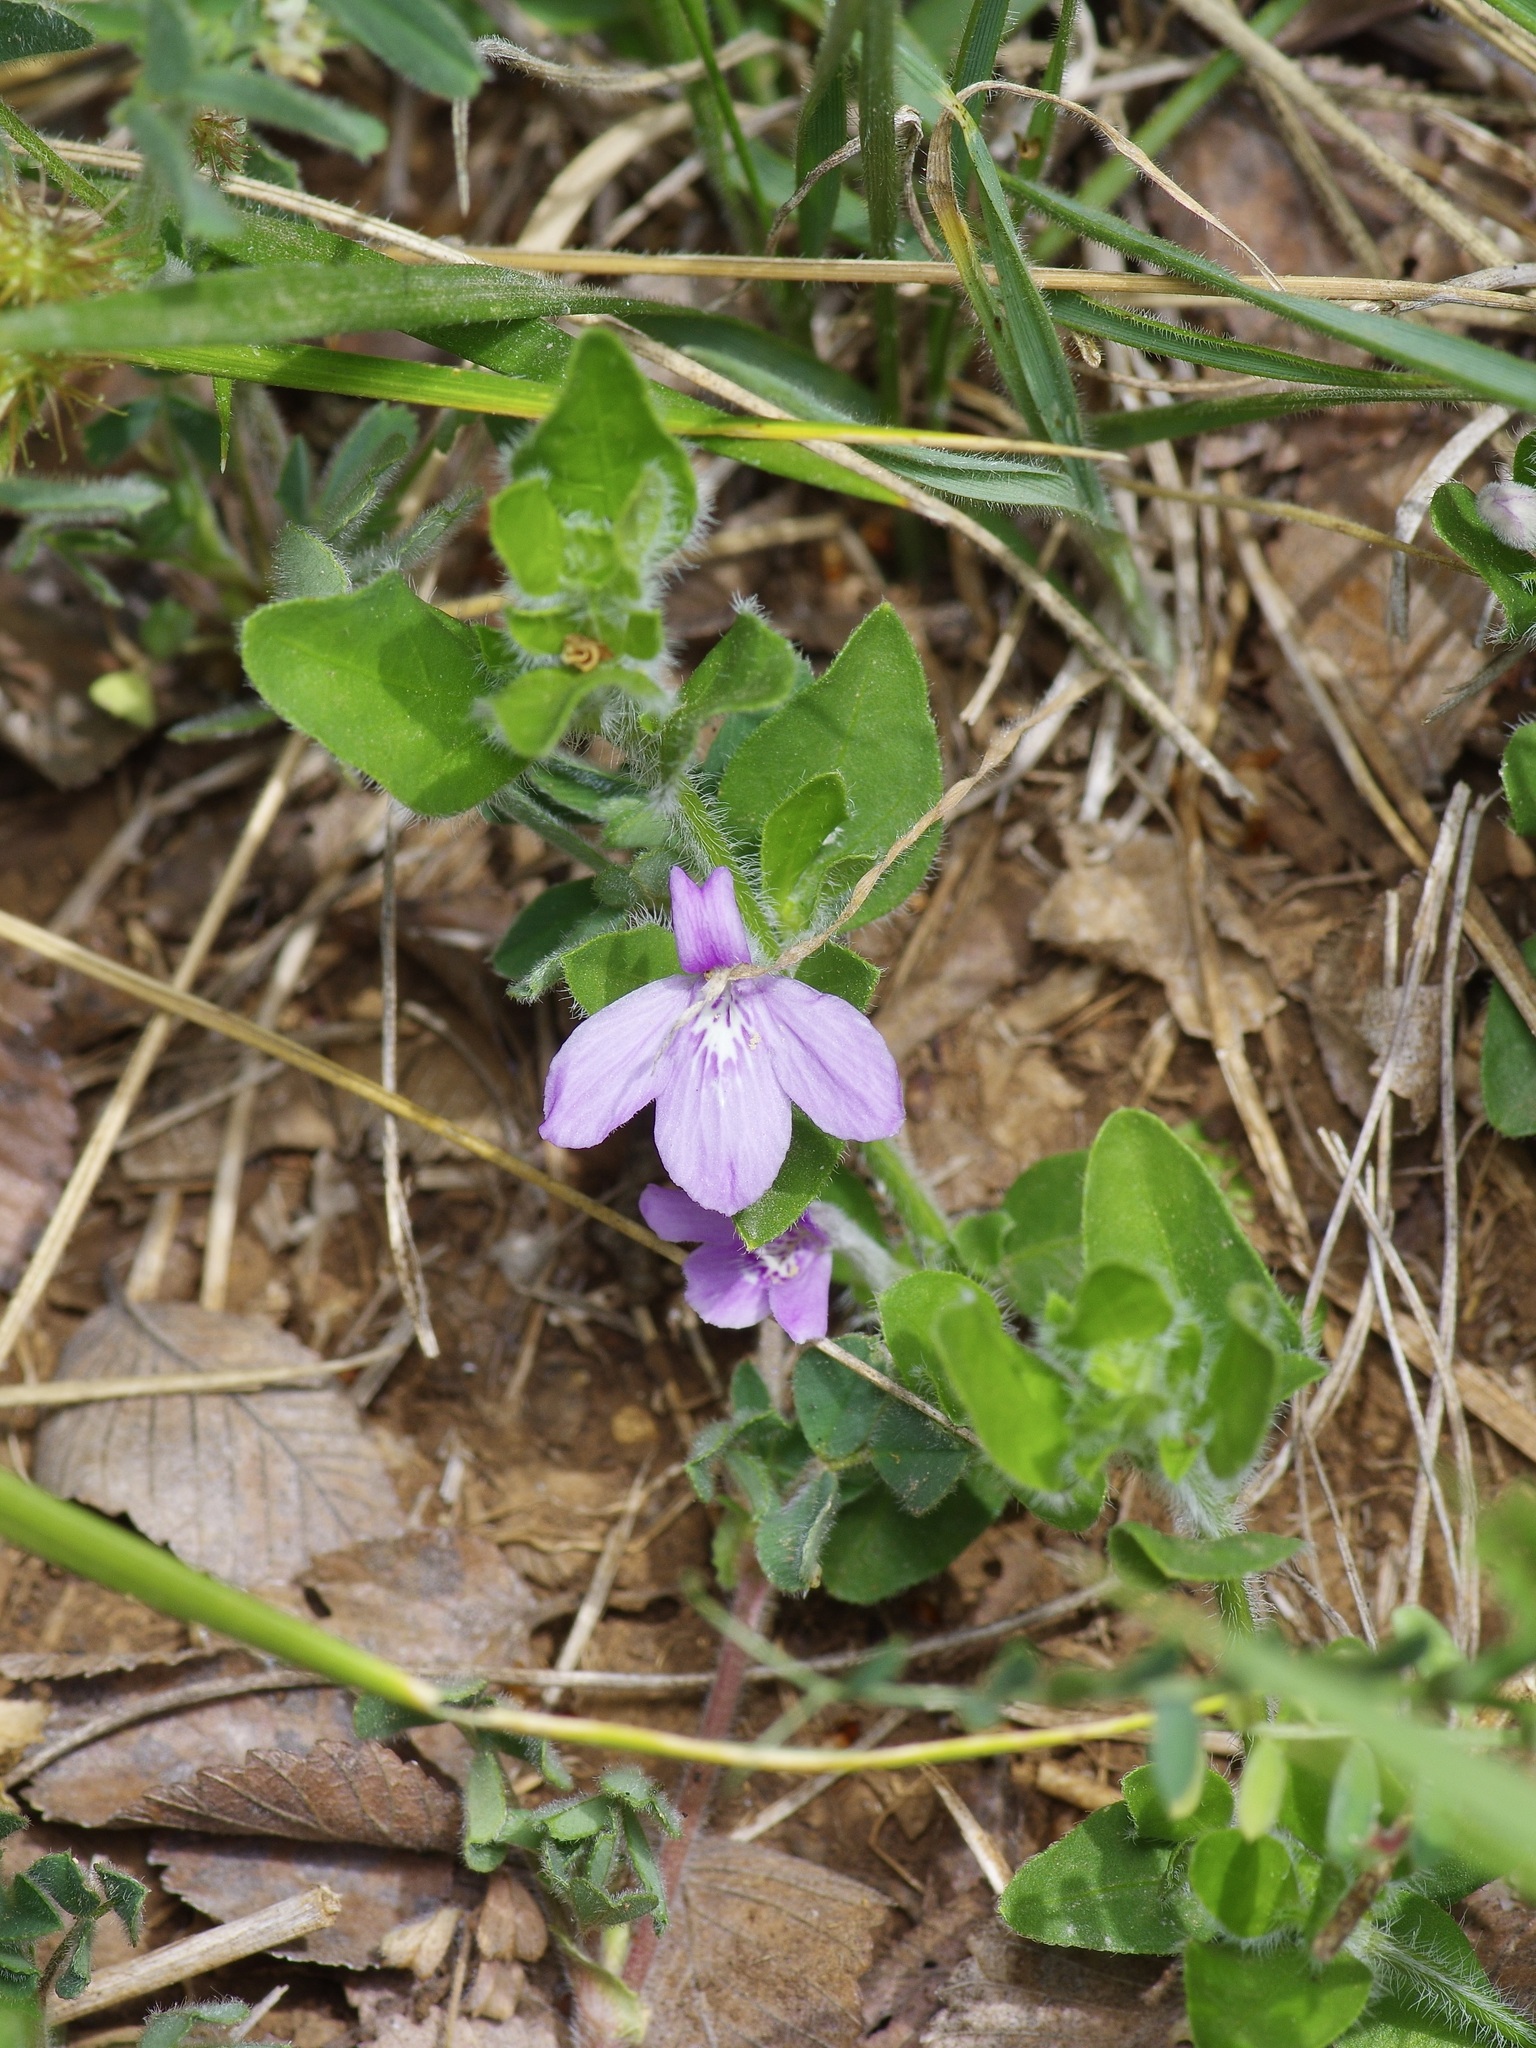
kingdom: Plantae
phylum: Tracheophyta
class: Magnoliopsida
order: Lamiales
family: Acanthaceae
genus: Justicia
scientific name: Justicia pilosella
